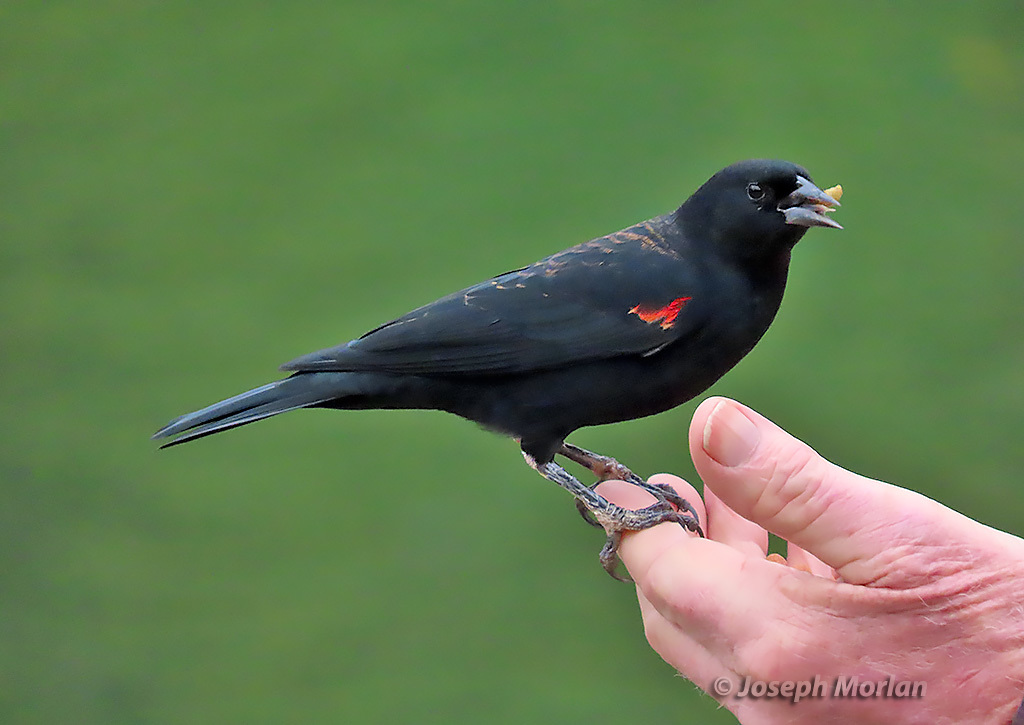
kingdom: Animalia
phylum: Chordata
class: Aves
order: Passeriformes
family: Icteridae
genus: Agelaius
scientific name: Agelaius phoeniceus
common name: Red-winged blackbird
